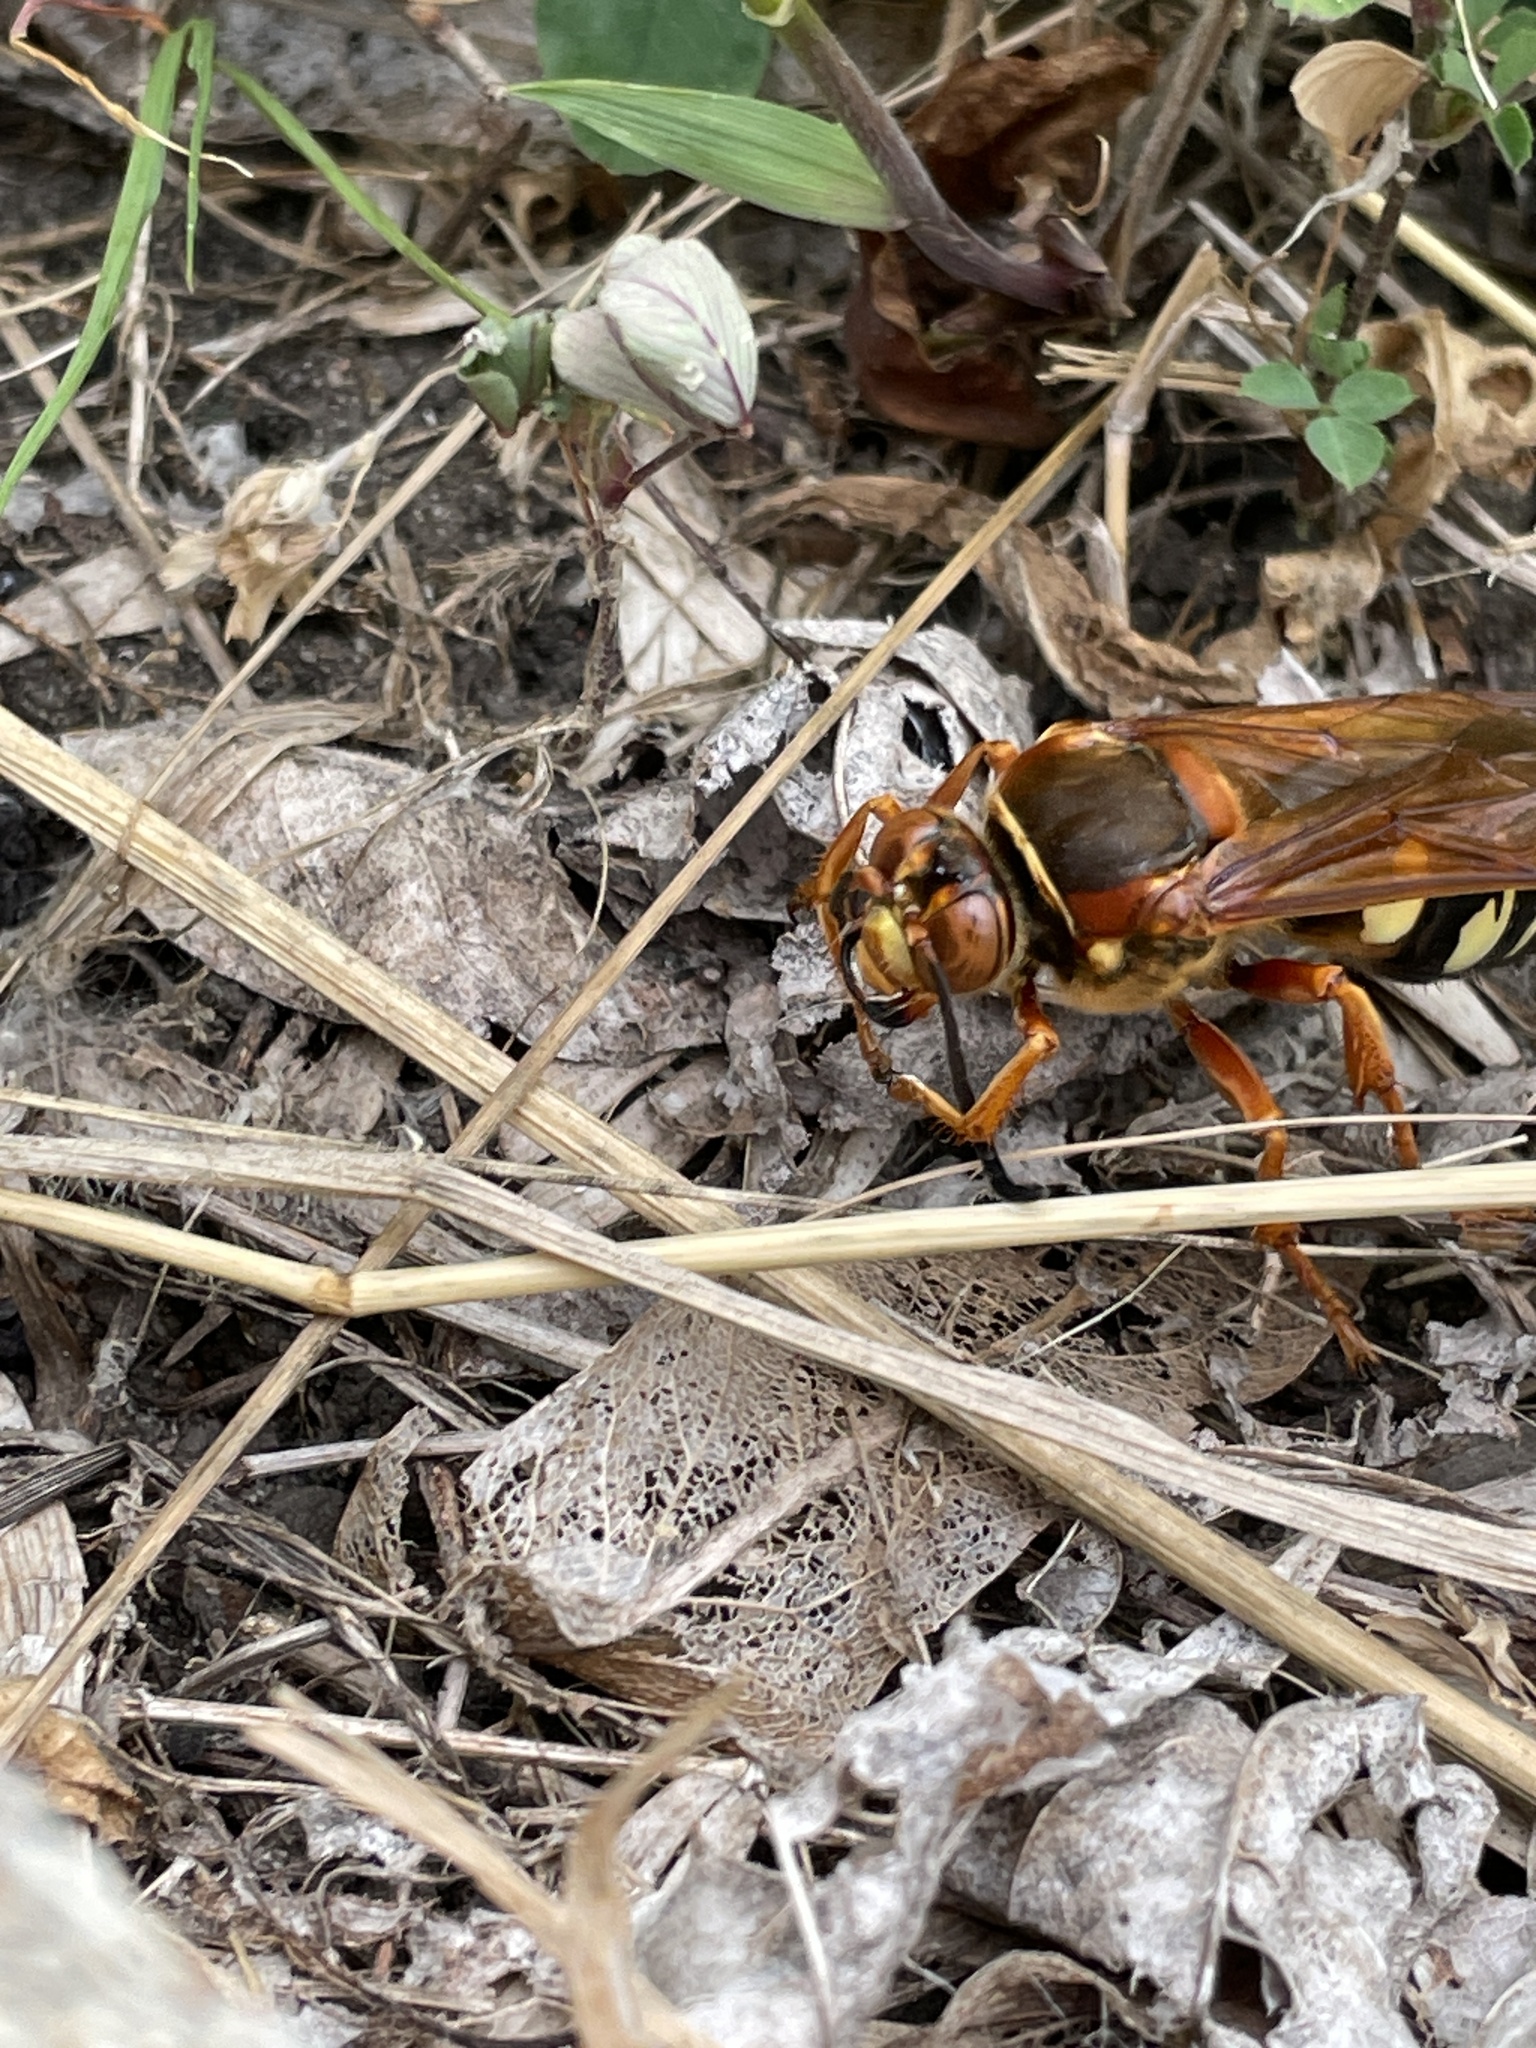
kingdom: Animalia
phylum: Arthropoda
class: Insecta
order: Hymenoptera
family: Crabronidae
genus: Sphecius
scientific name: Sphecius speciosus
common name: Cicada killer
